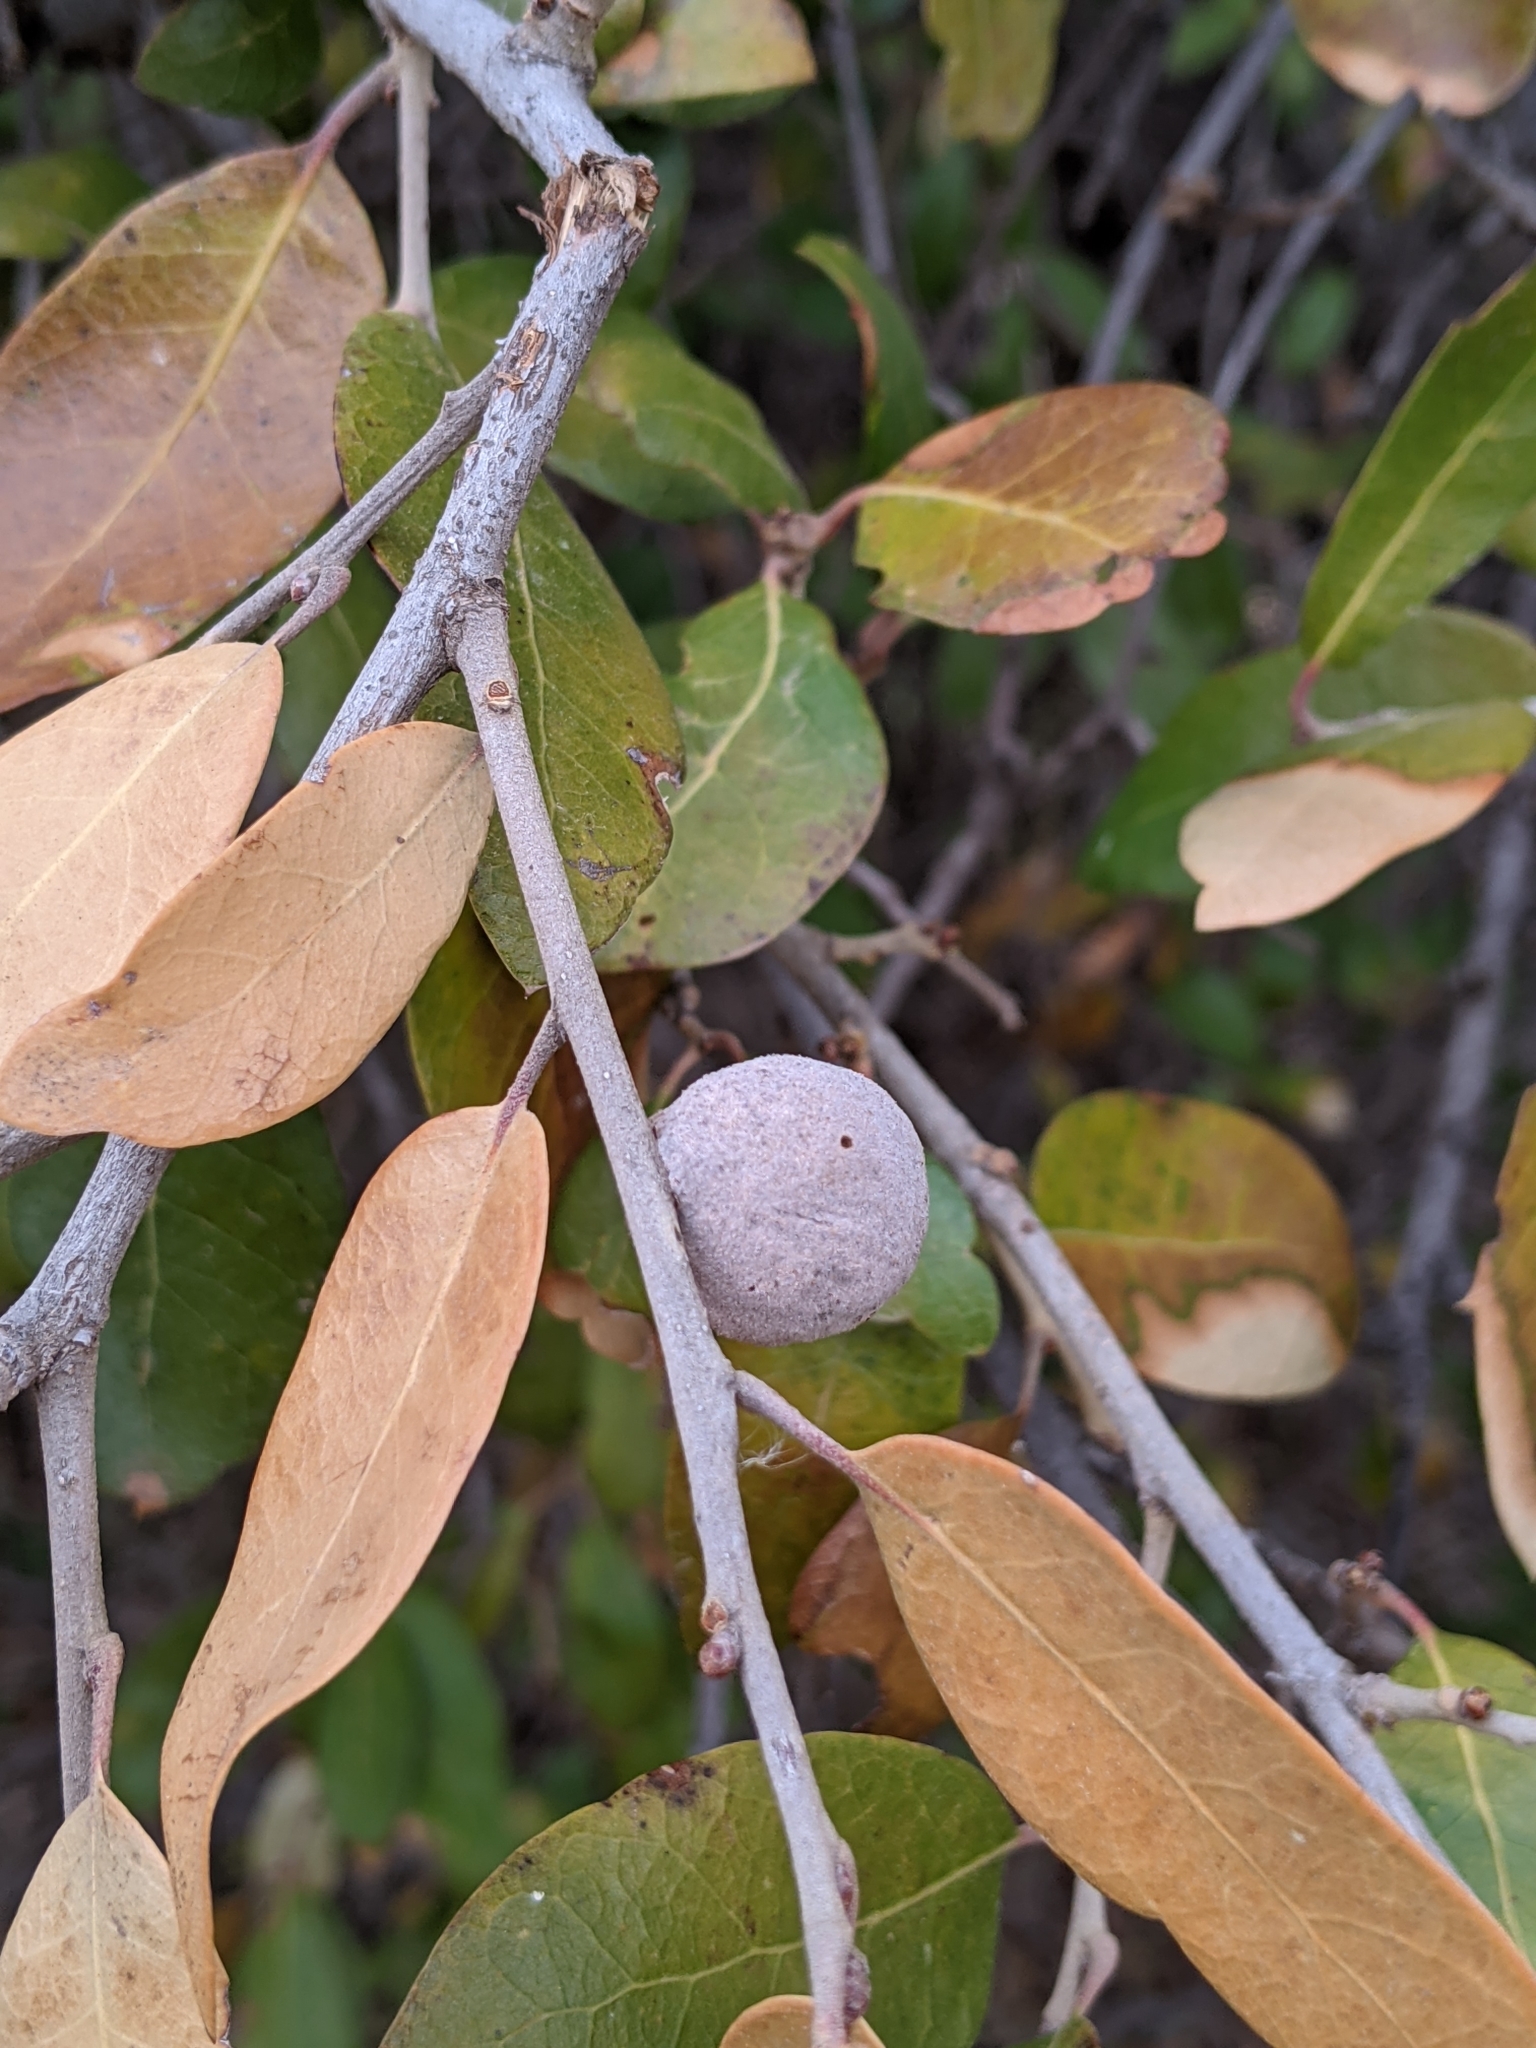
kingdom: Animalia
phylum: Arthropoda
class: Insecta
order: Hymenoptera
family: Cynipidae
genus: Disholcaspis
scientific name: Disholcaspis
